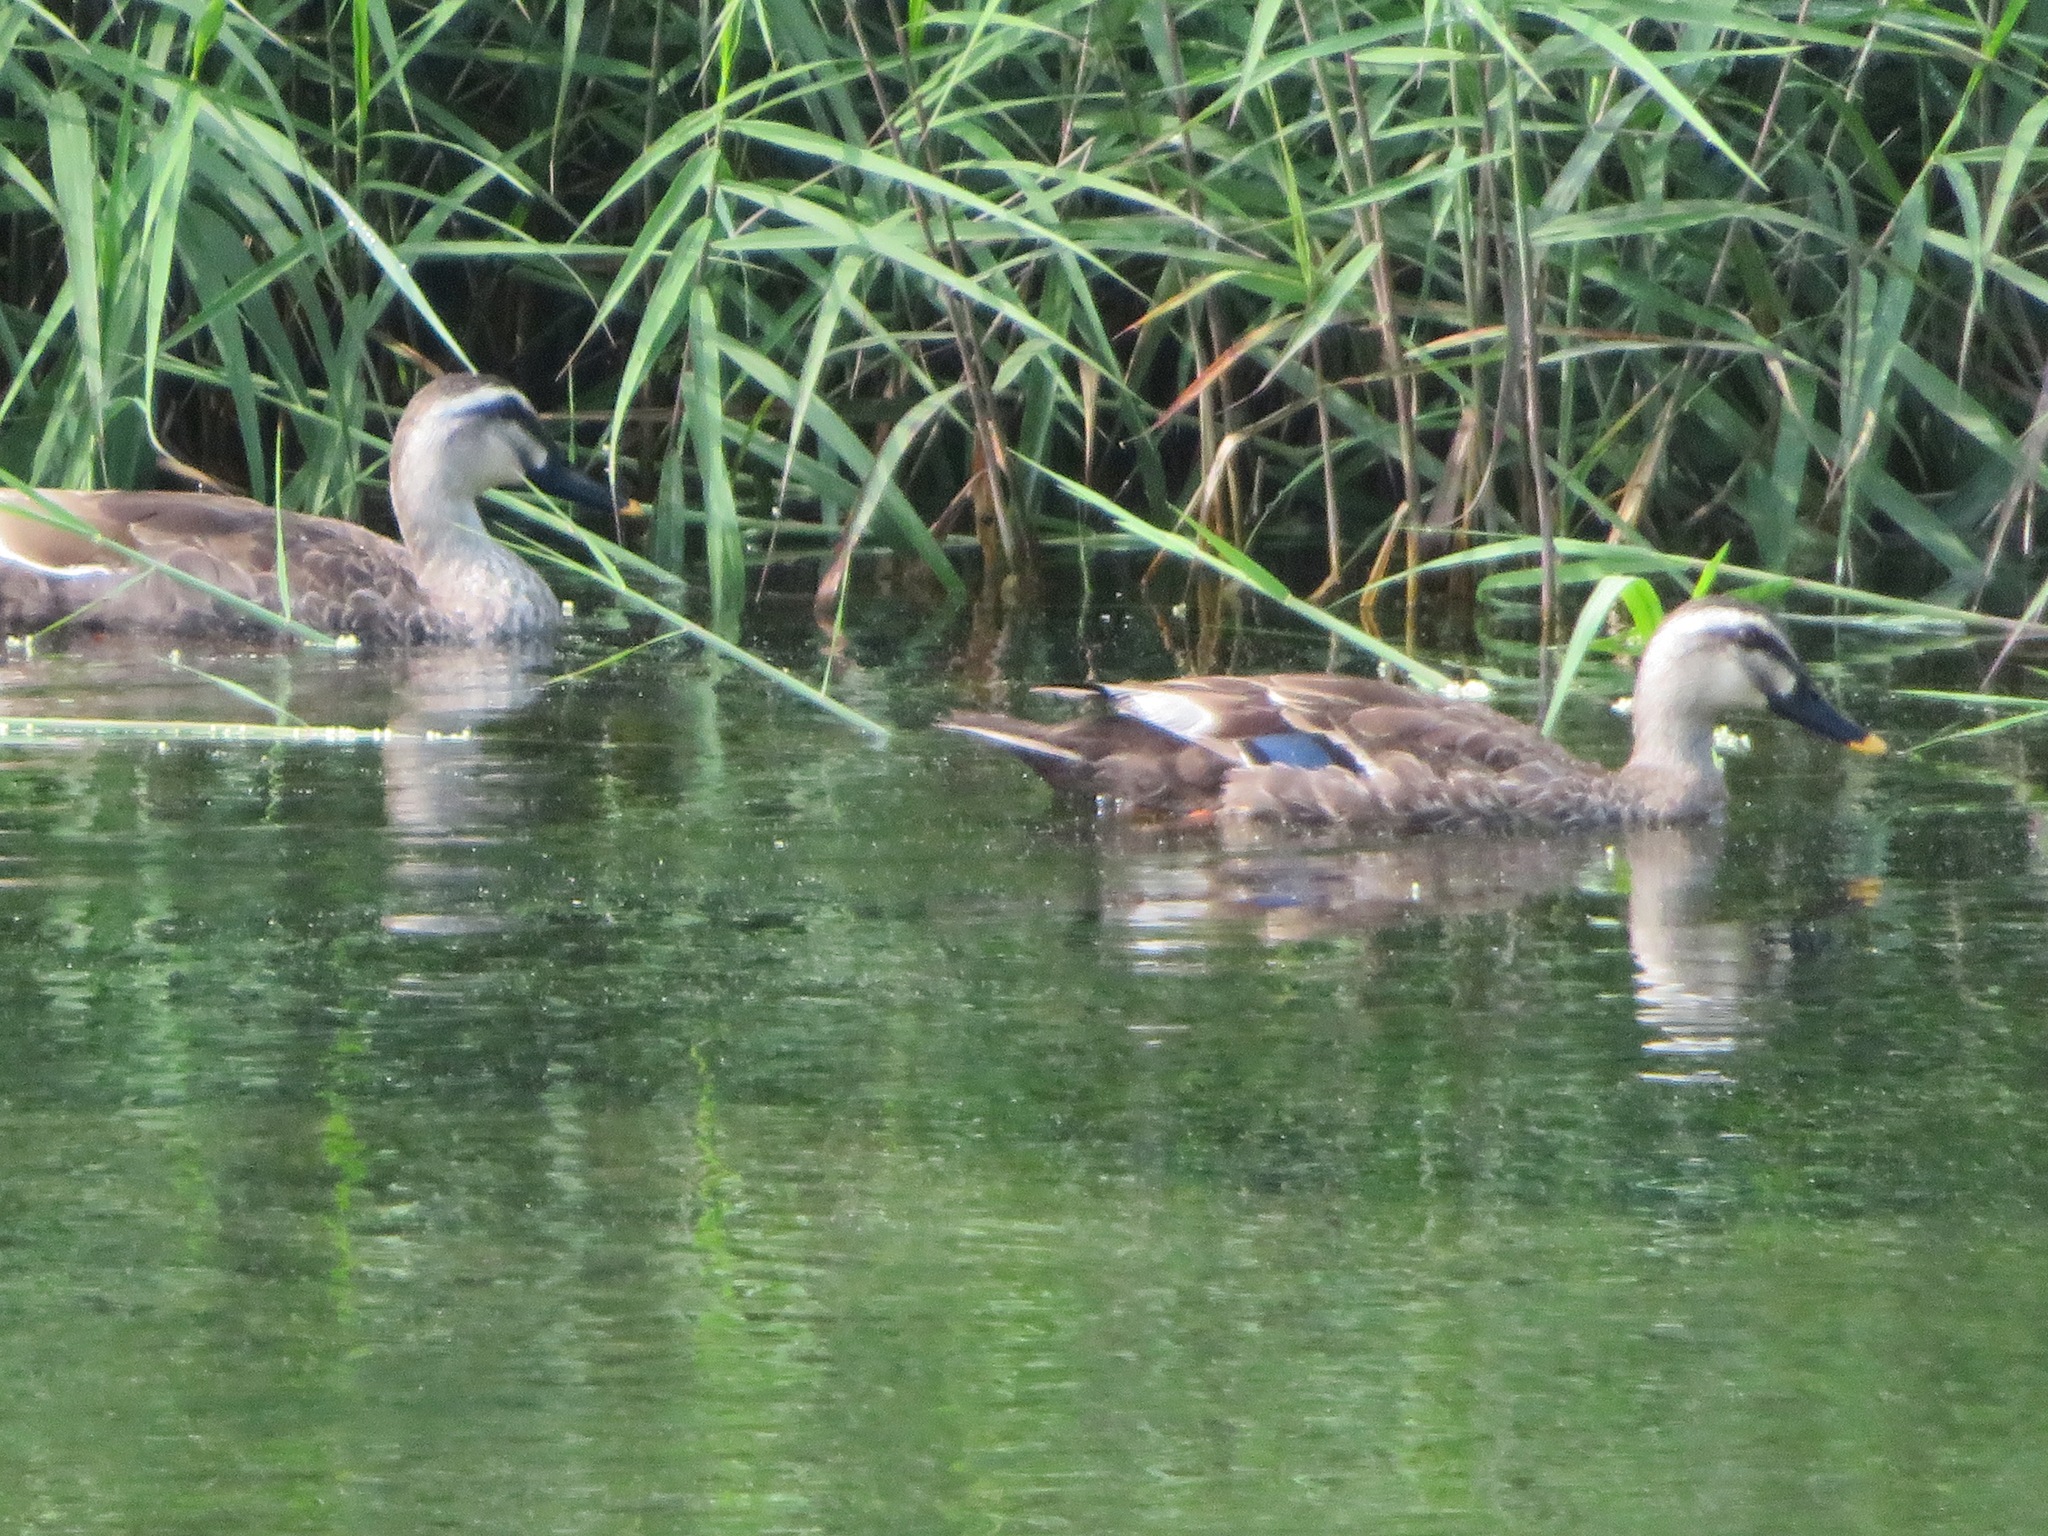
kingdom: Animalia
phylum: Chordata
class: Aves
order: Anseriformes
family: Anatidae
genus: Anas
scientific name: Anas zonorhyncha
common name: Eastern spot-billed duck
